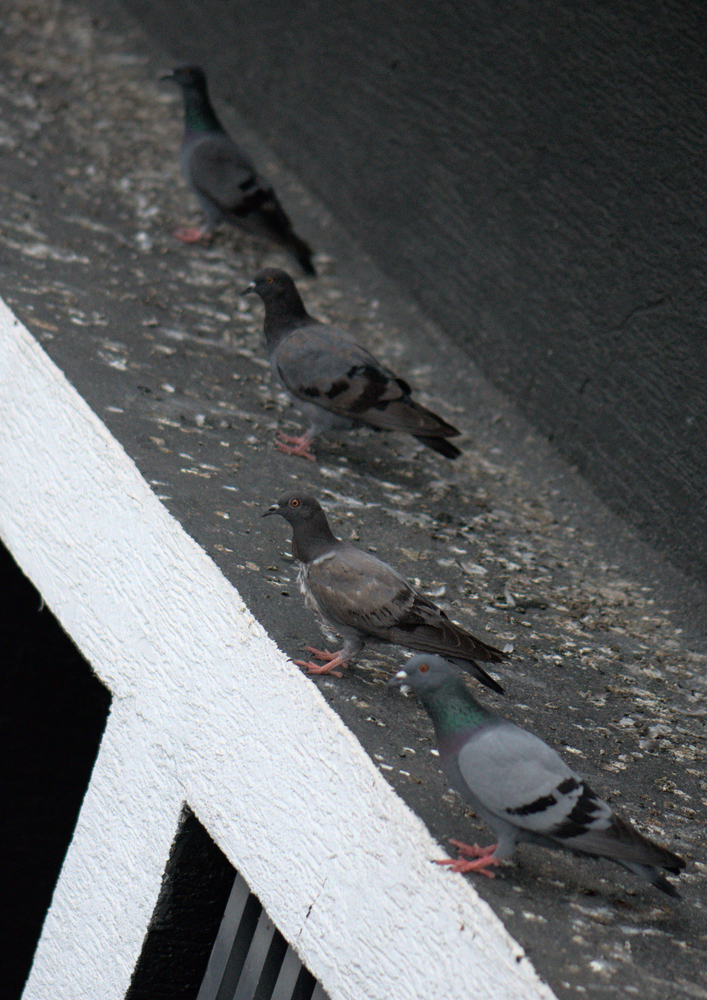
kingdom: Animalia
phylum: Chordata
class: Aves
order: Columbiformes
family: Columbidae
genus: Columba
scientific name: Columba livia
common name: Rock pigeon
